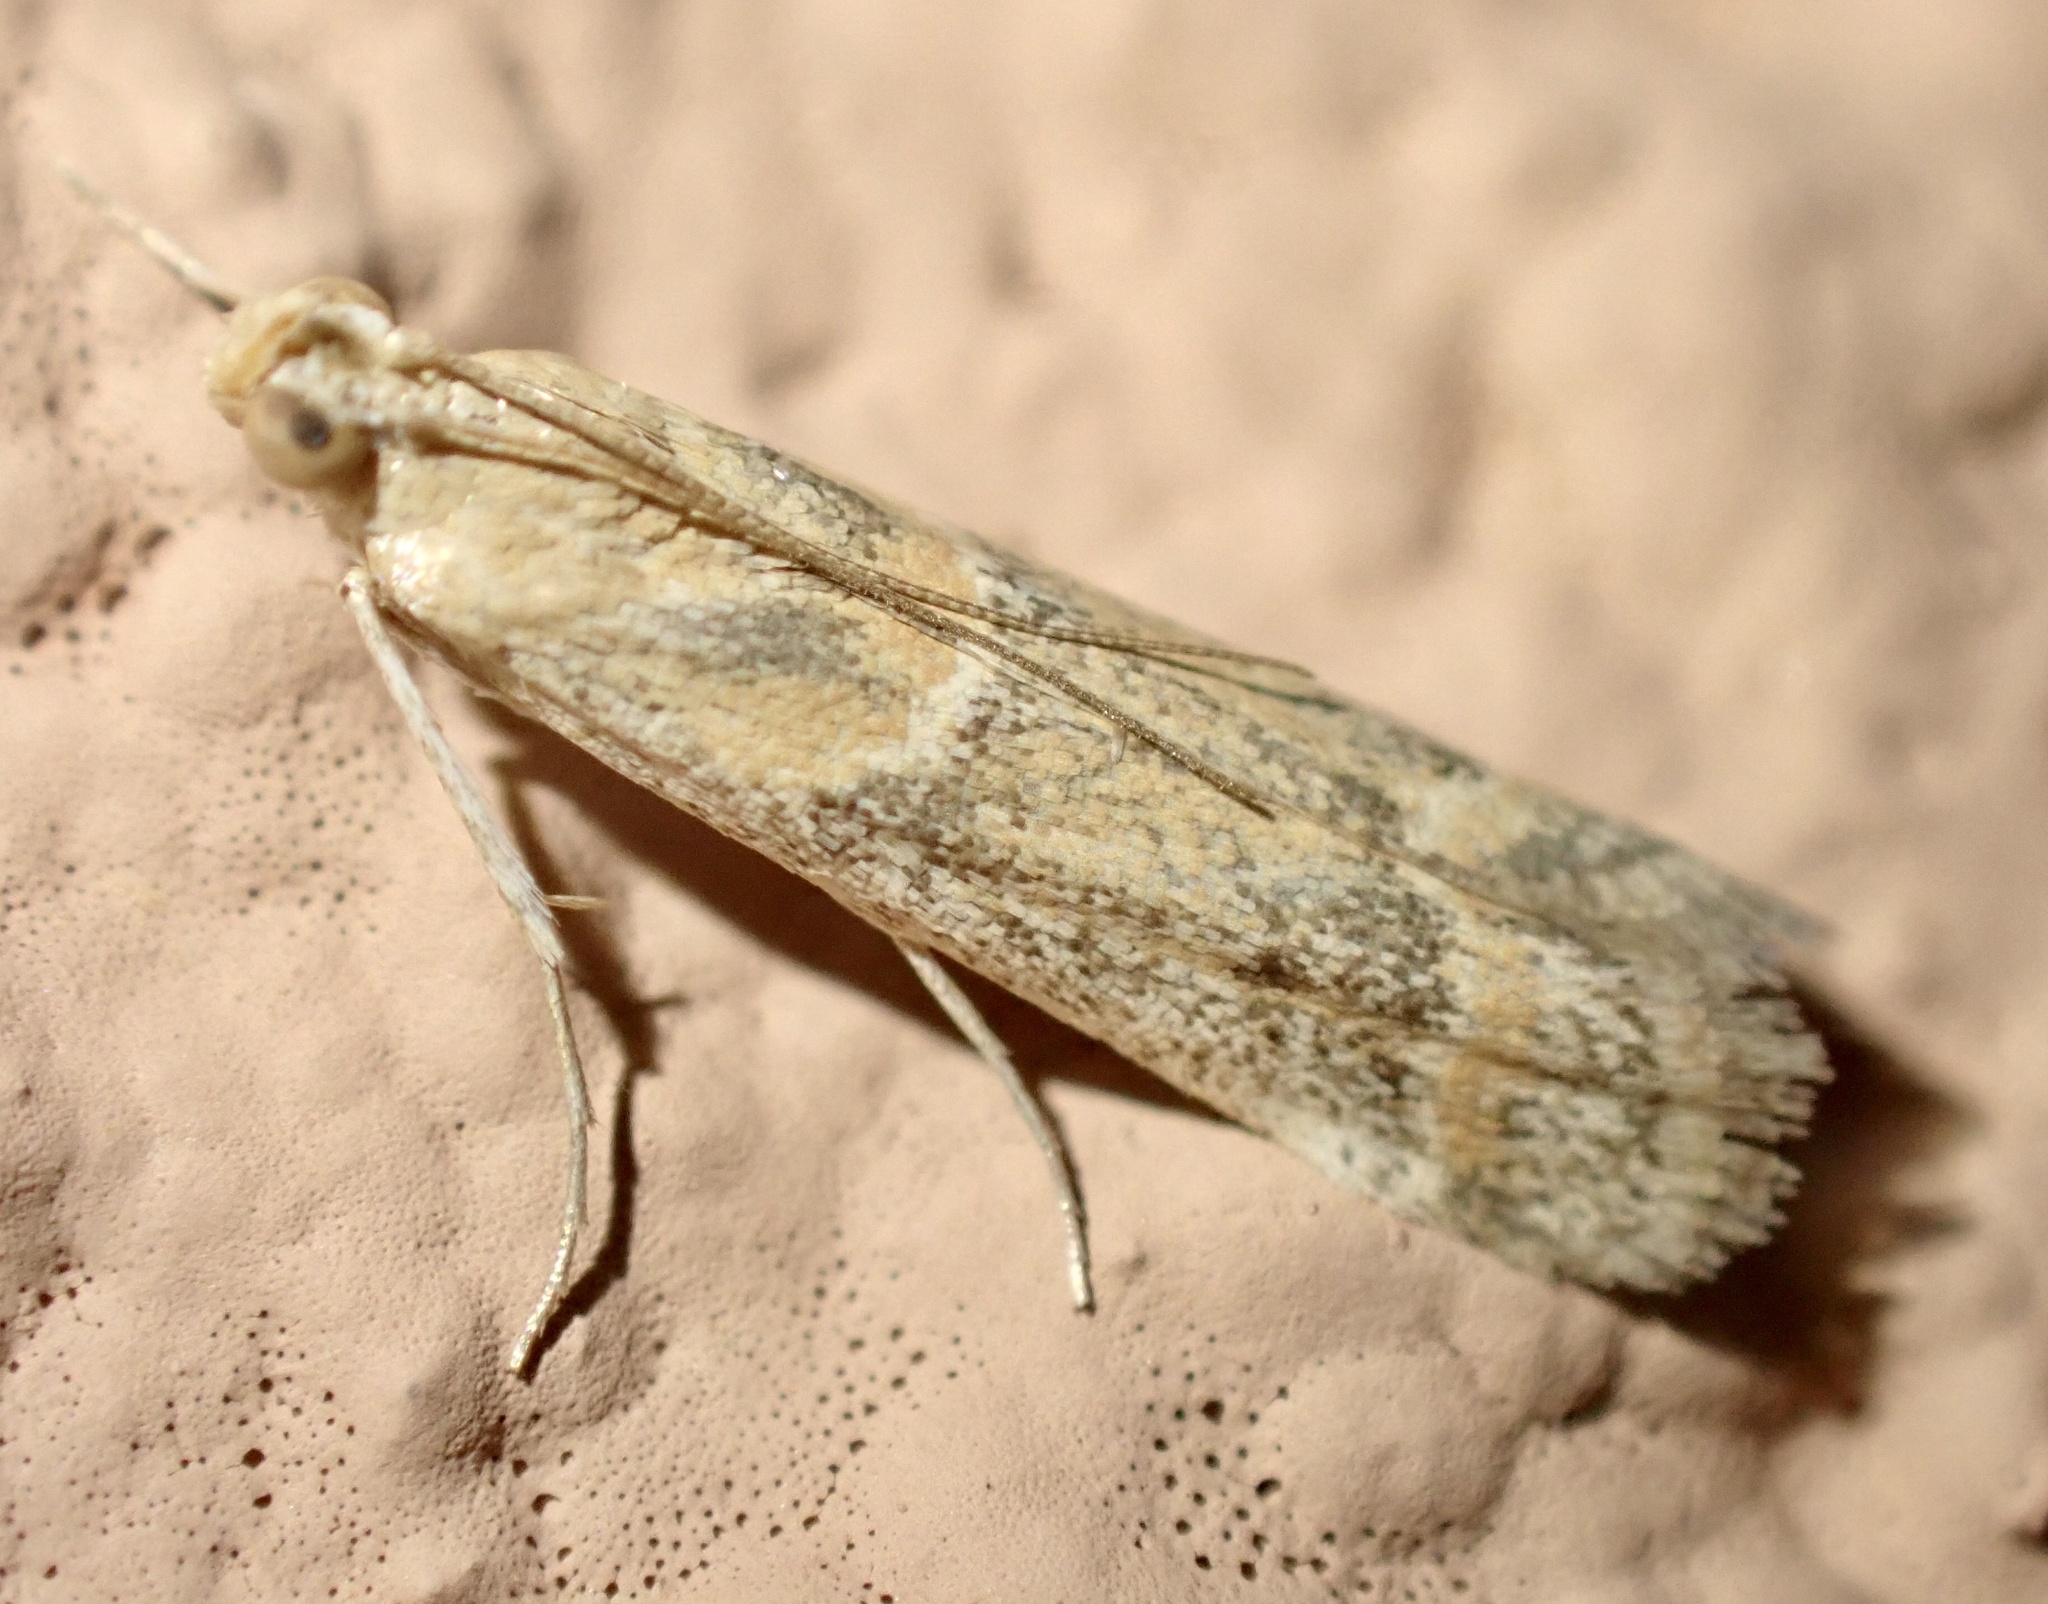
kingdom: Animalia
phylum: Arthropoda
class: Insecta
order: Lepidoptera
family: Pyralidae
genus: Ancylosis
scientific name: Ancylosis samaritanella
